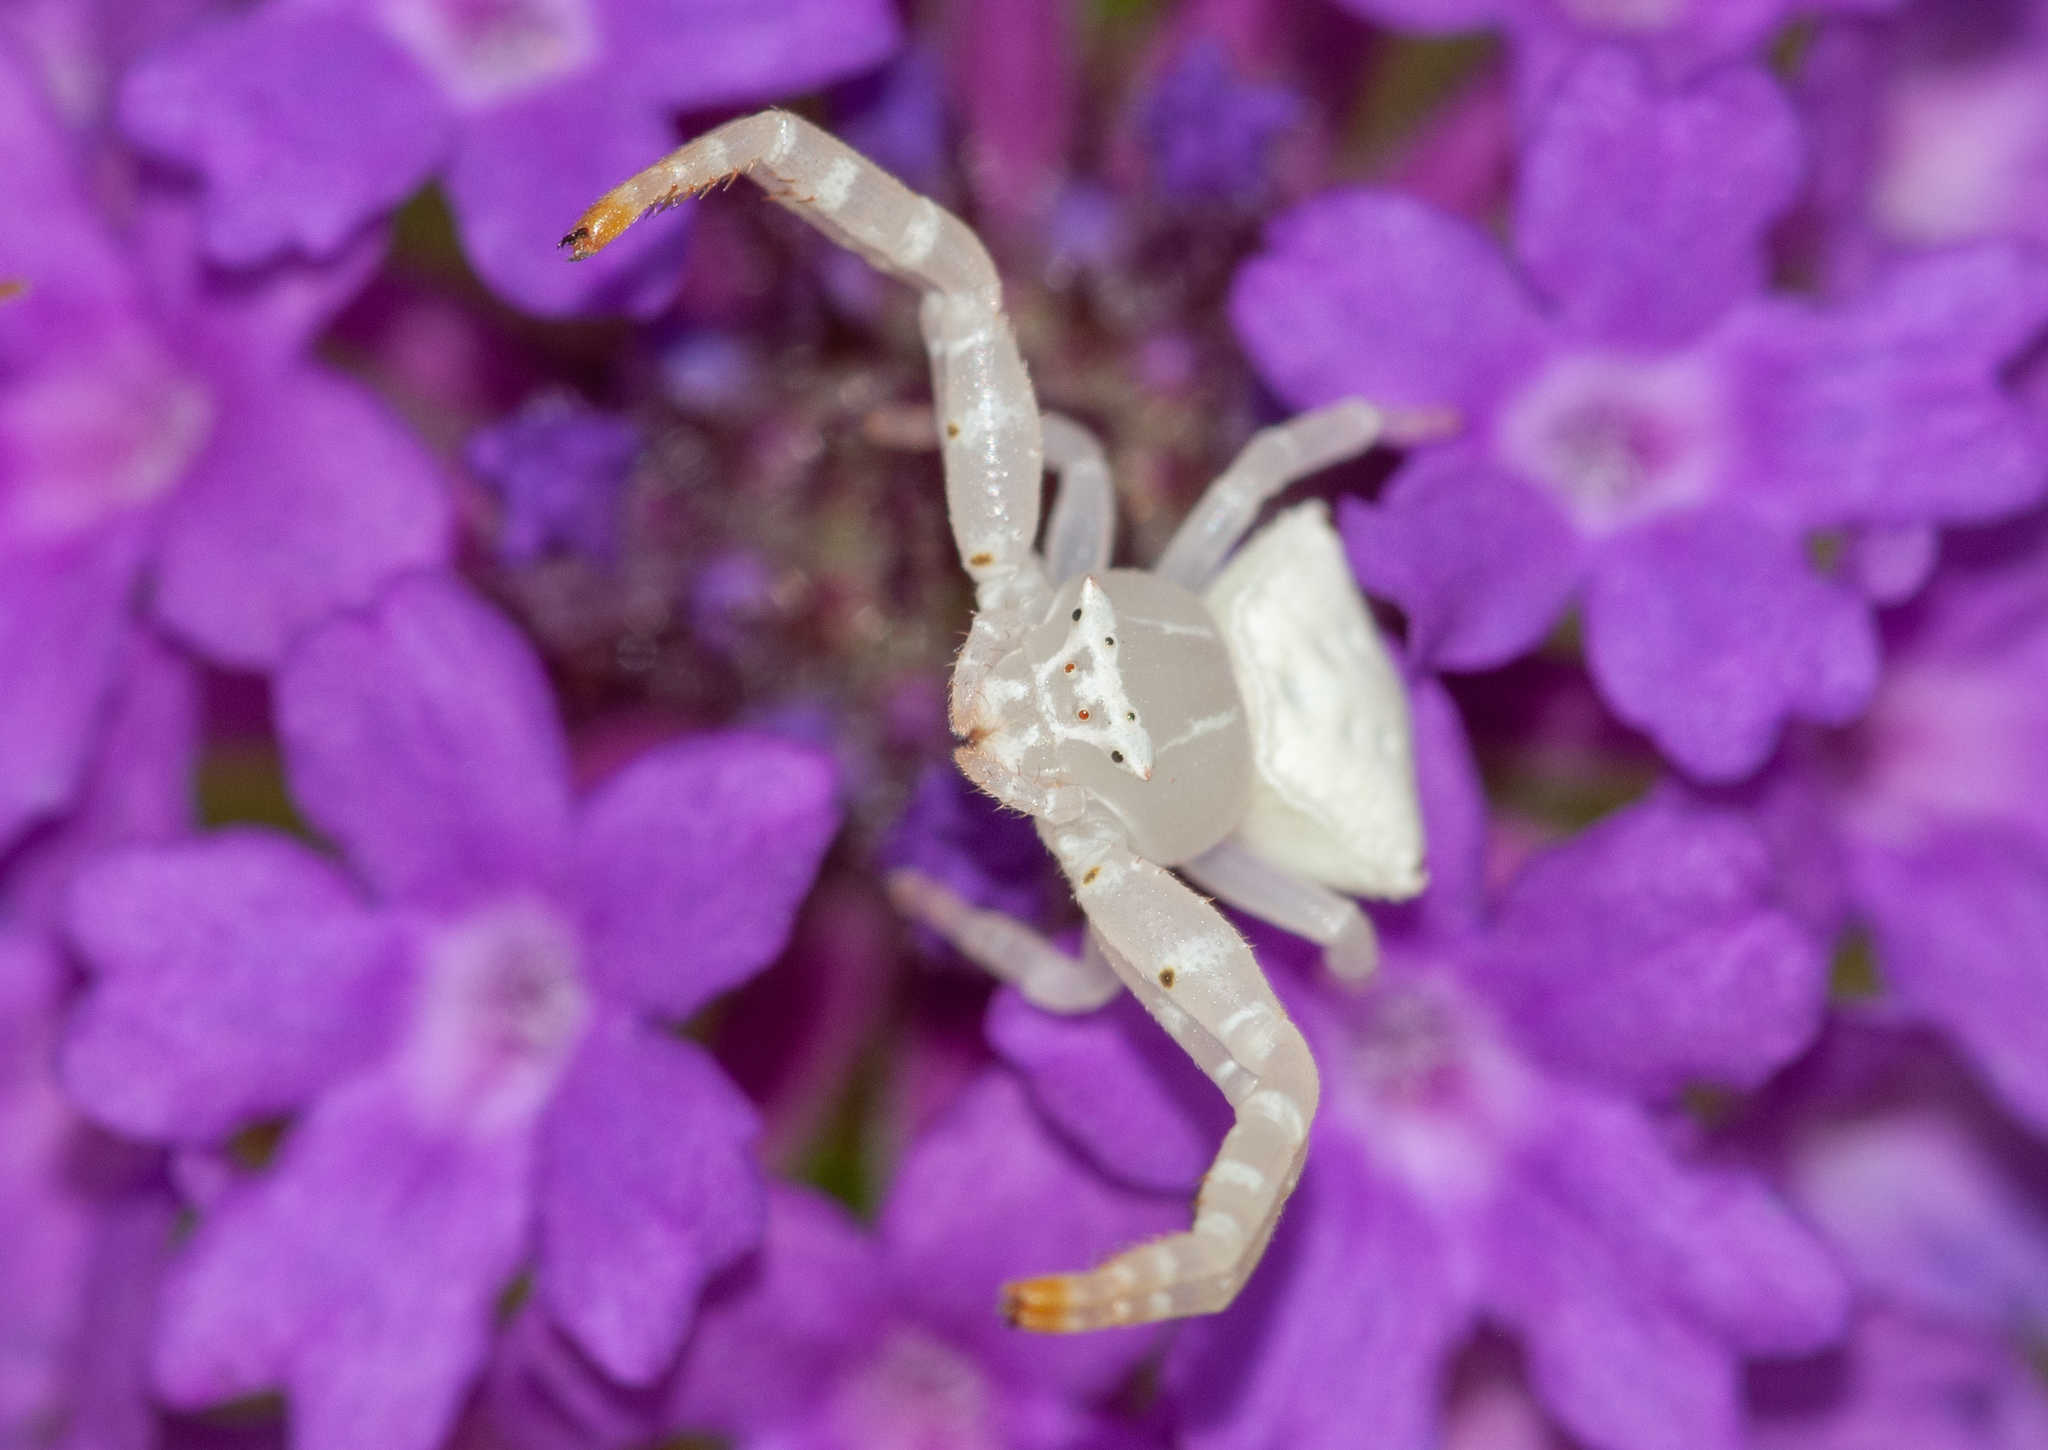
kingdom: Animalia
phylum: Arthropoda
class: Arachnida
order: Araneae
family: Thomisidae
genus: Thomisus
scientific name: Thomisus spectabilis
